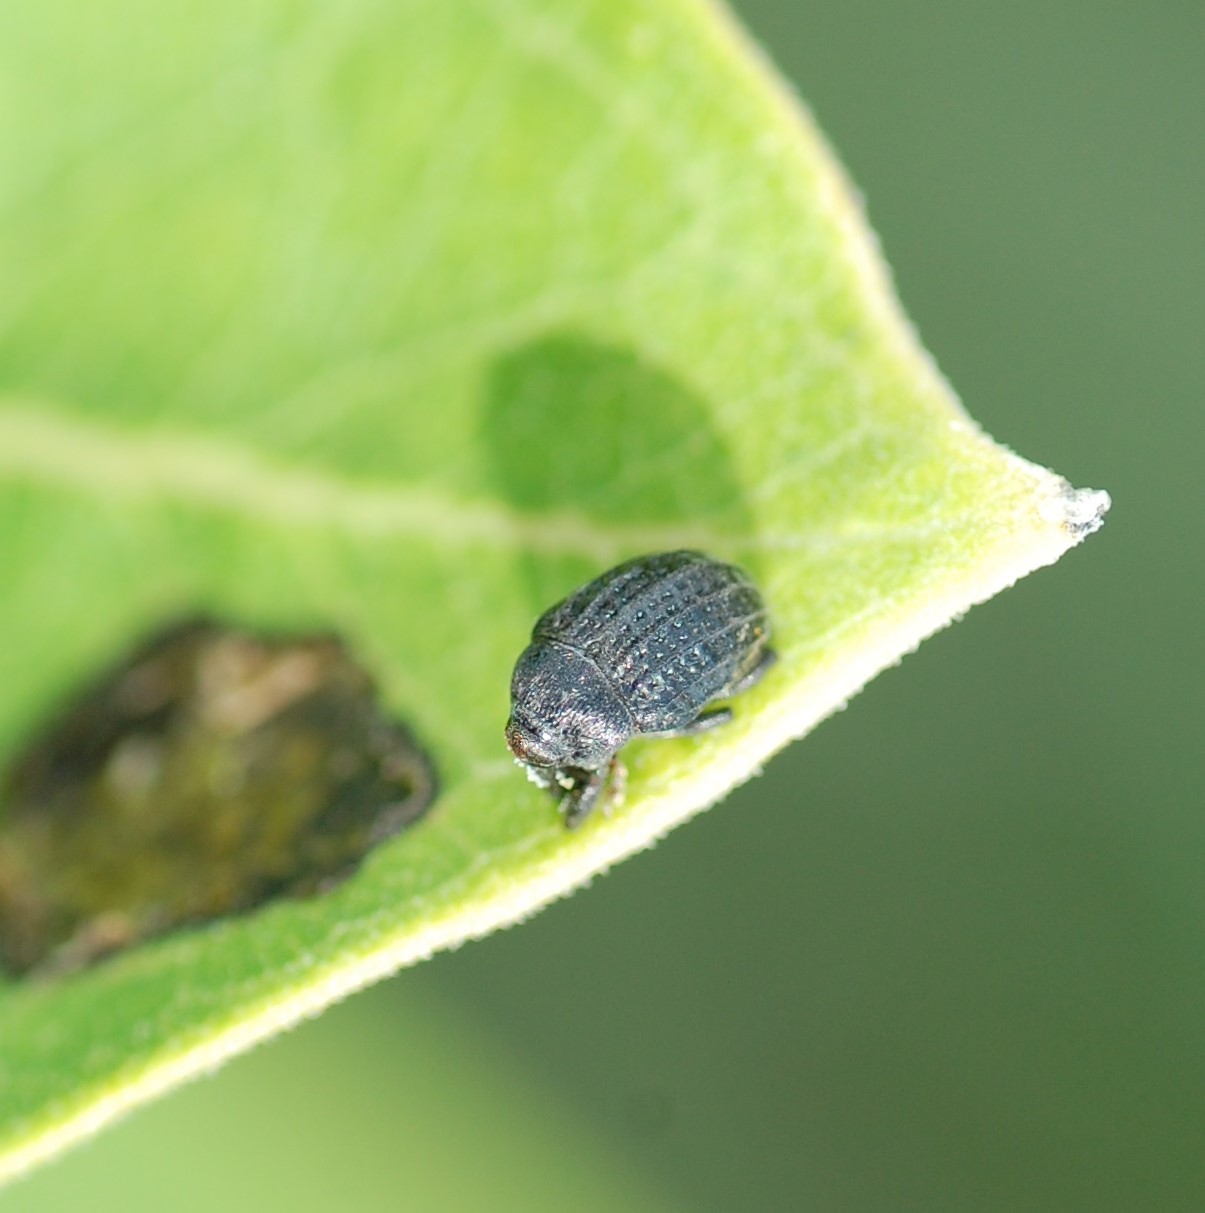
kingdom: Animalia
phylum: Arthropoda
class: Insecta
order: Coleoptera
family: Curculionidae
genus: Rhyssomatus
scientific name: Rhyssomatus lineaticollis
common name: Milkweed stem weevil
